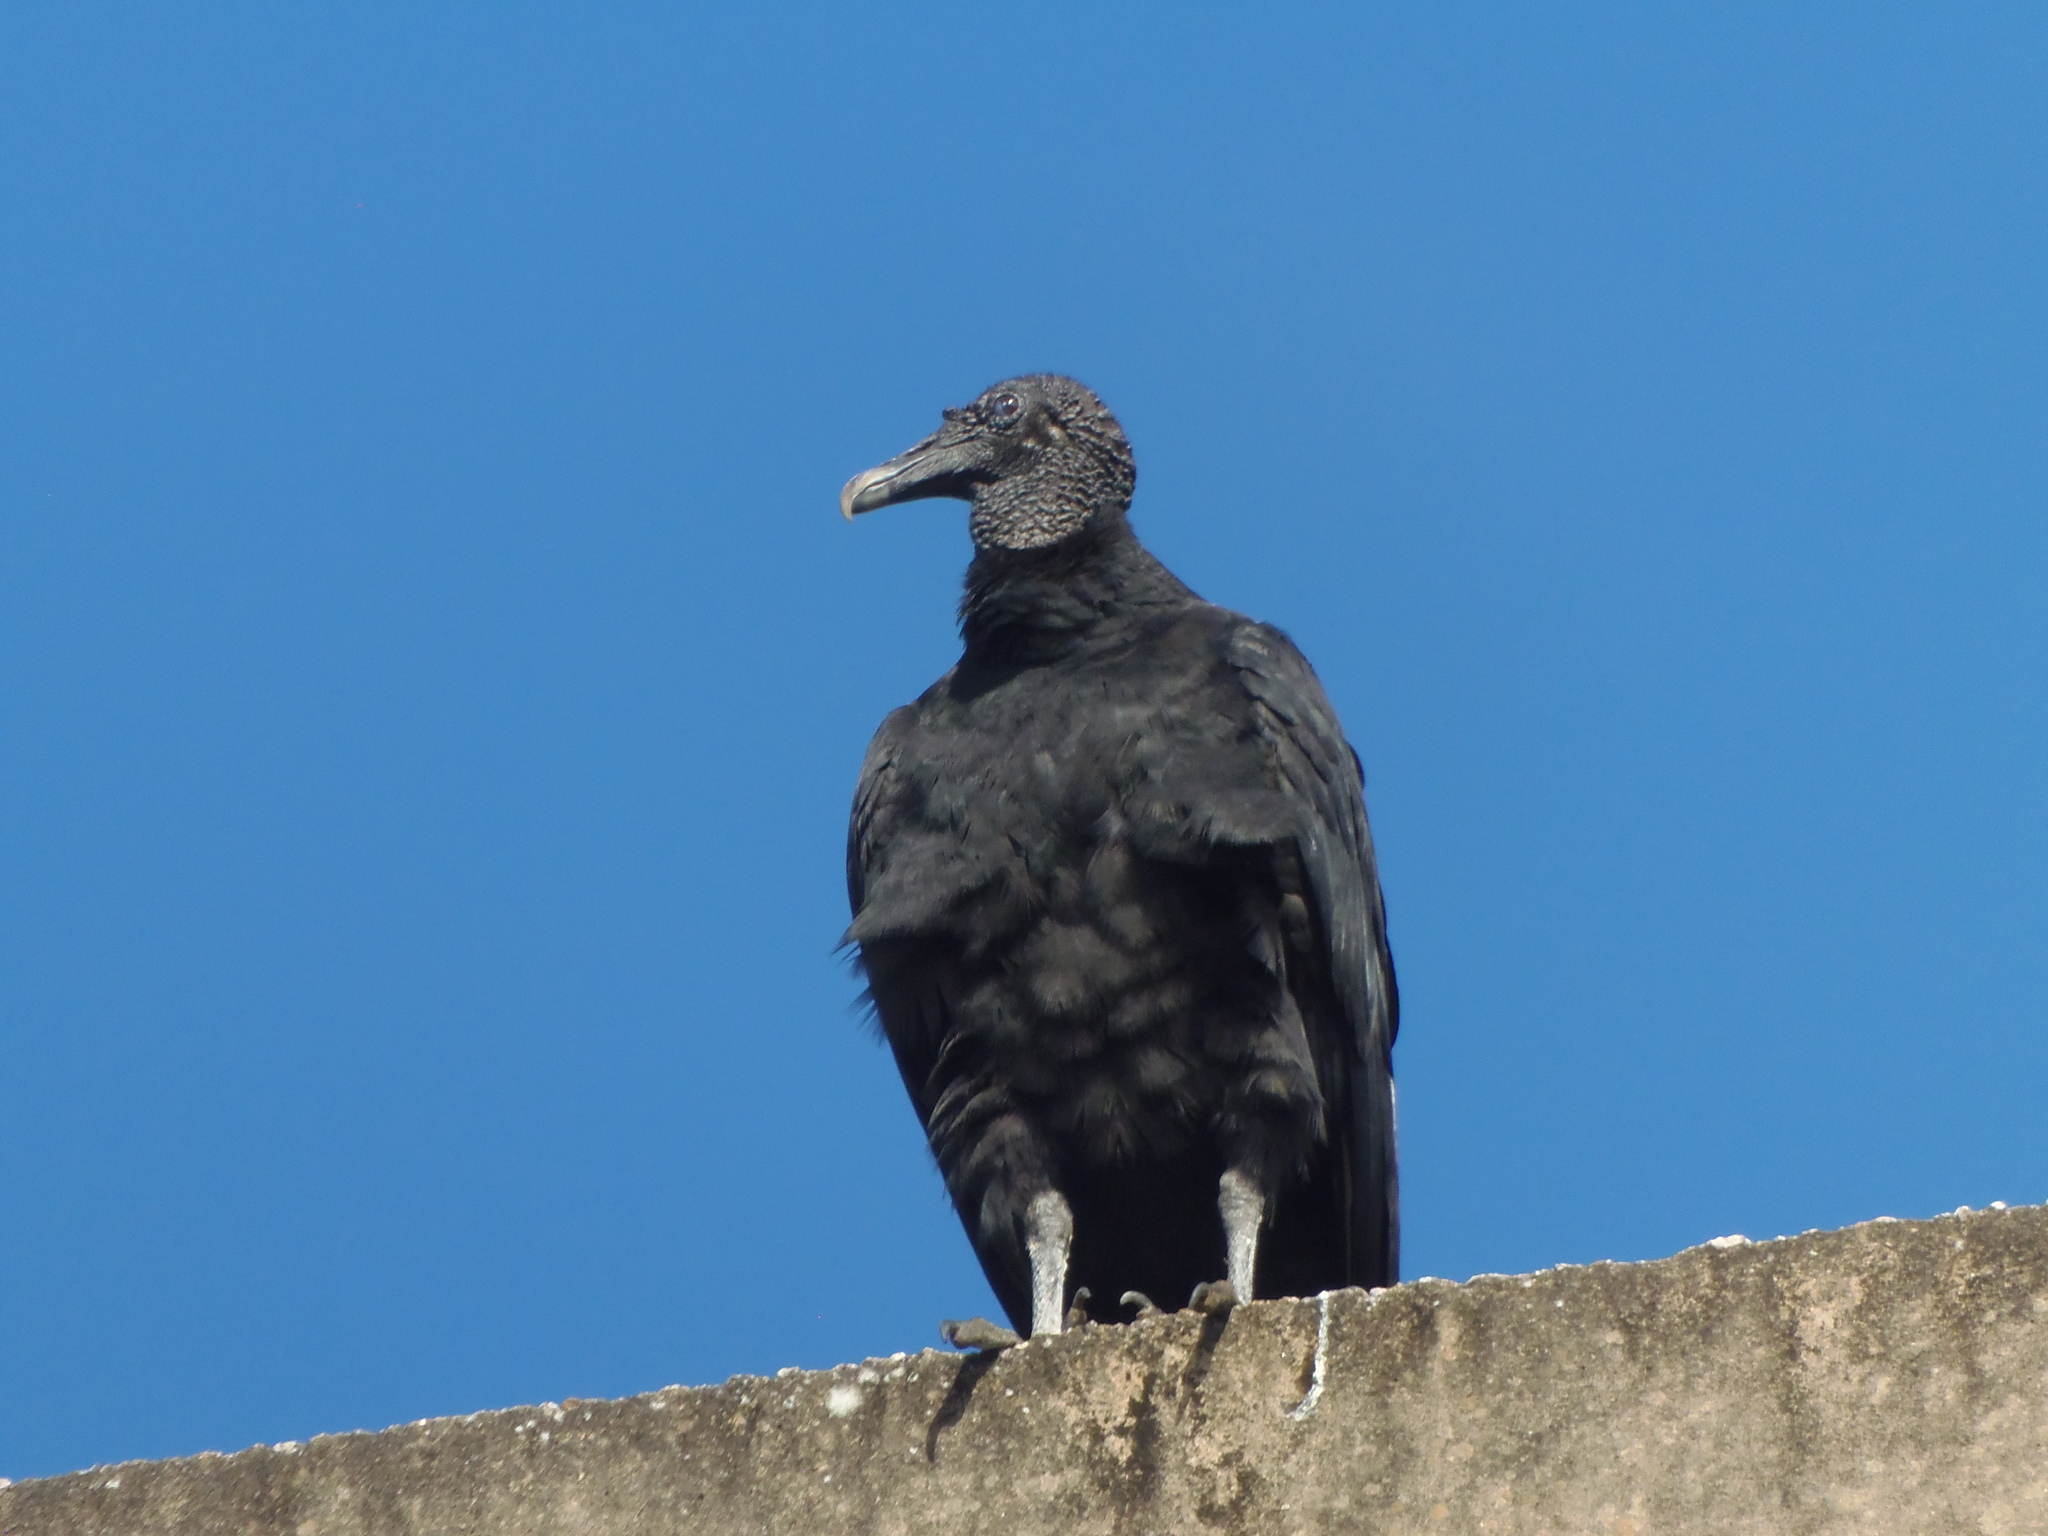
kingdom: Animalia
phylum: Chordata
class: Aves
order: Accipitriformes
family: Cathartidae
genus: Coragyps
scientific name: Coragyps atratus
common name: Black vulture
